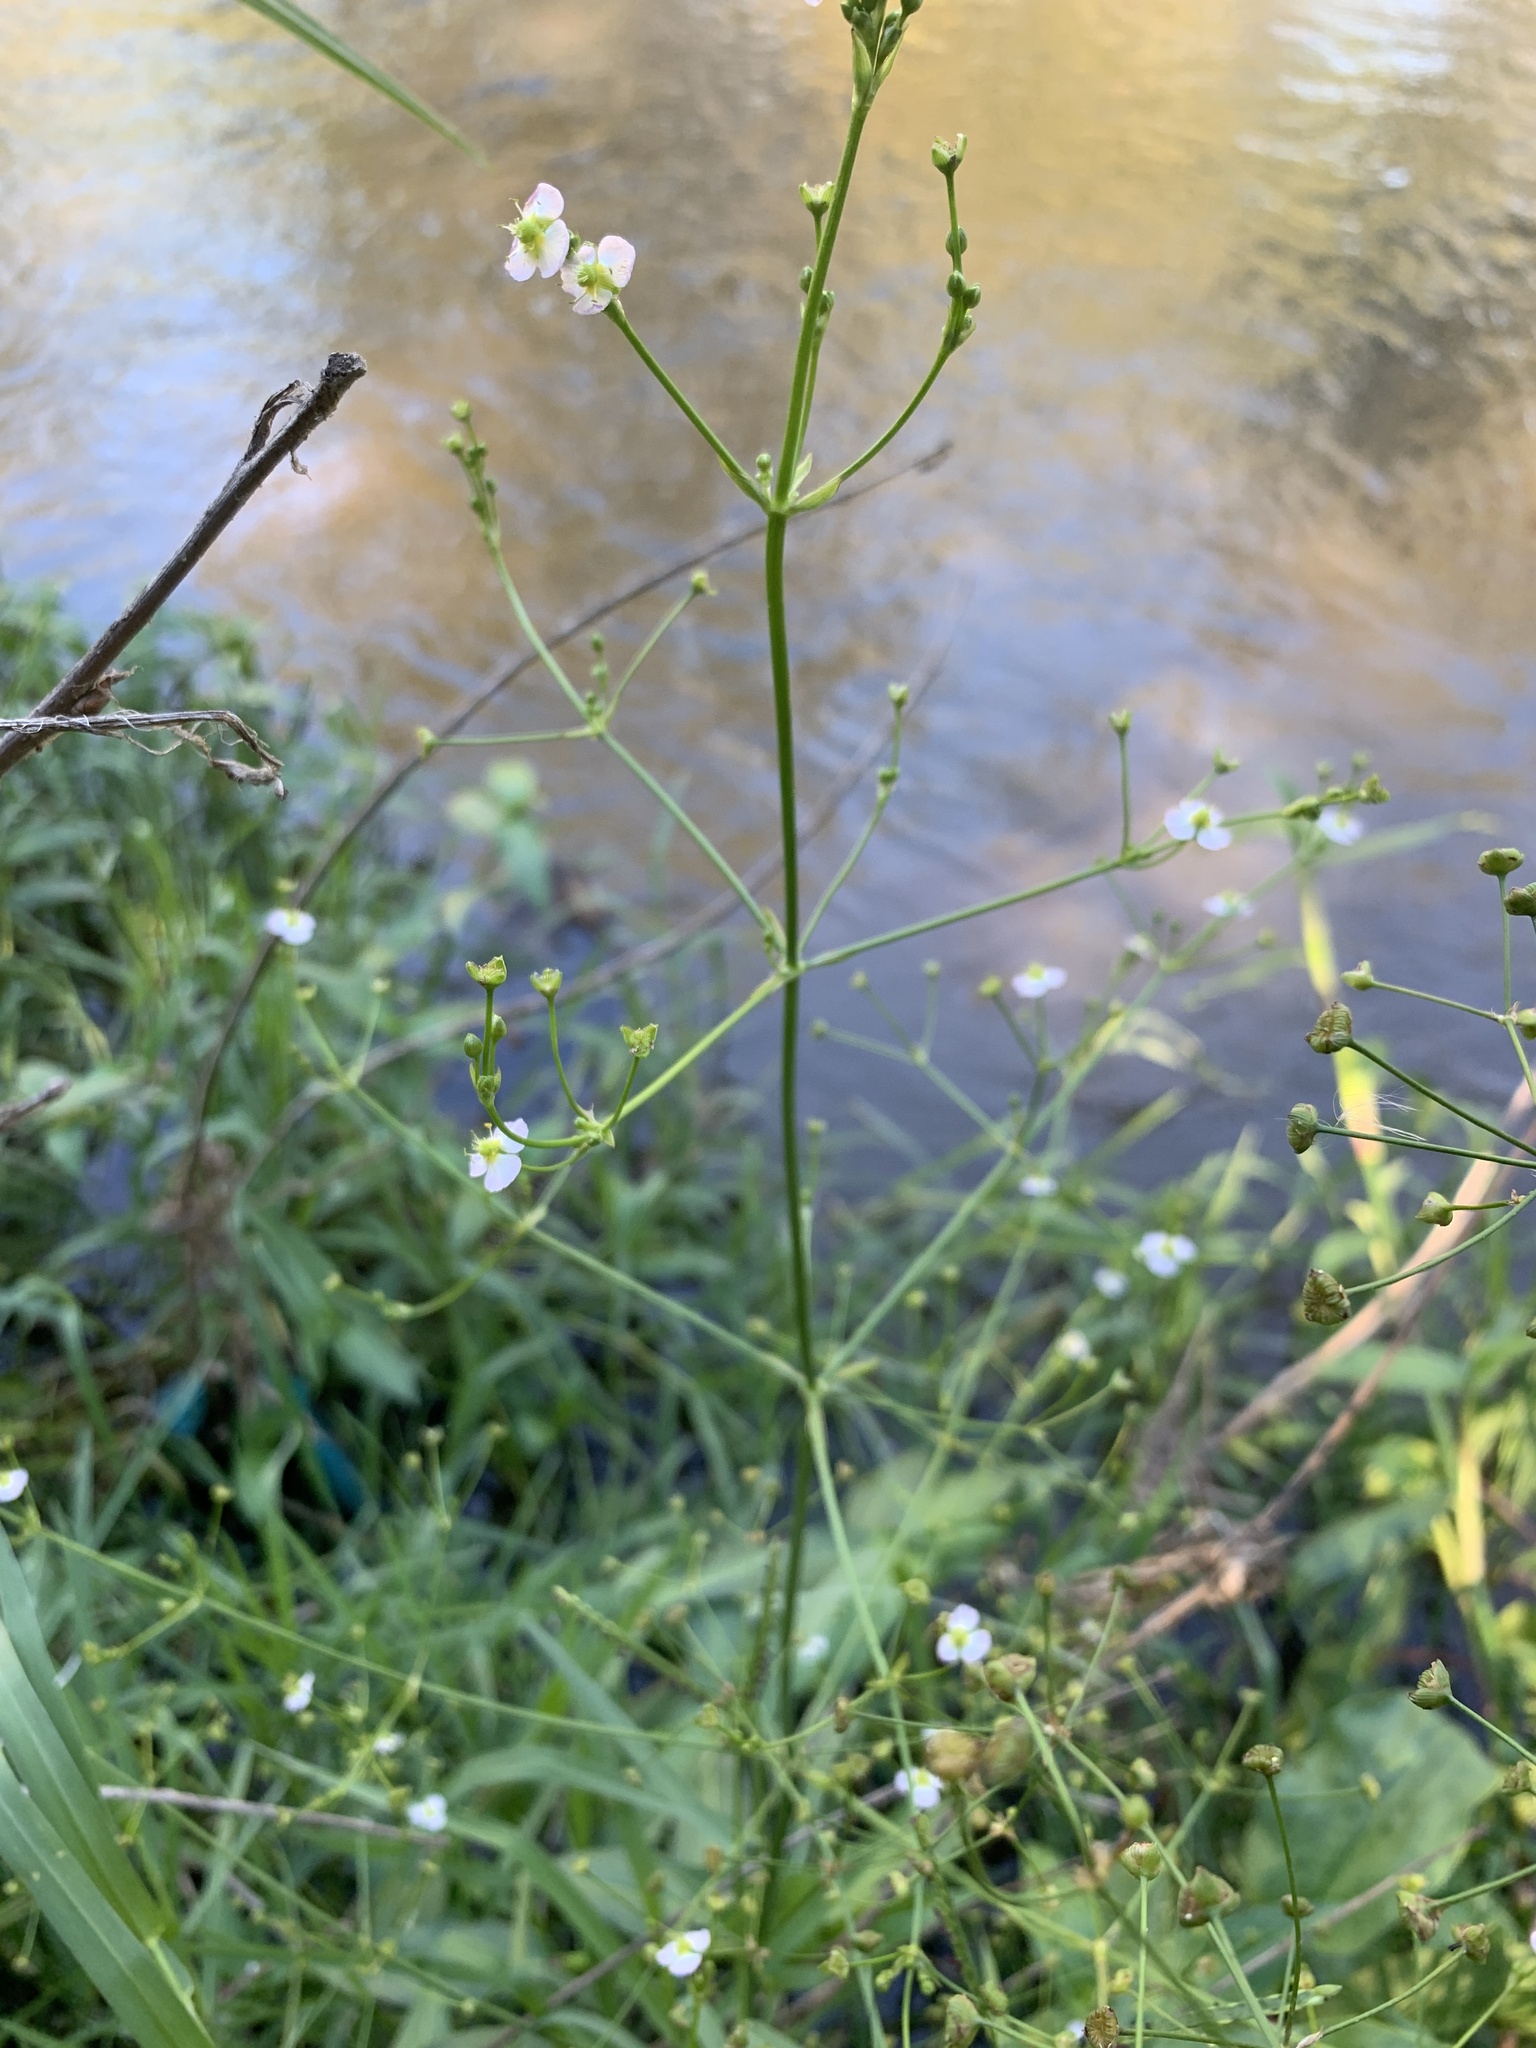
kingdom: Plantae
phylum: Tracheophyta
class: Liliopsida
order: Alismatales
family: Alismataceae
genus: Alisma
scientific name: Alisma plantago-aquatica
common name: Water-plantain
